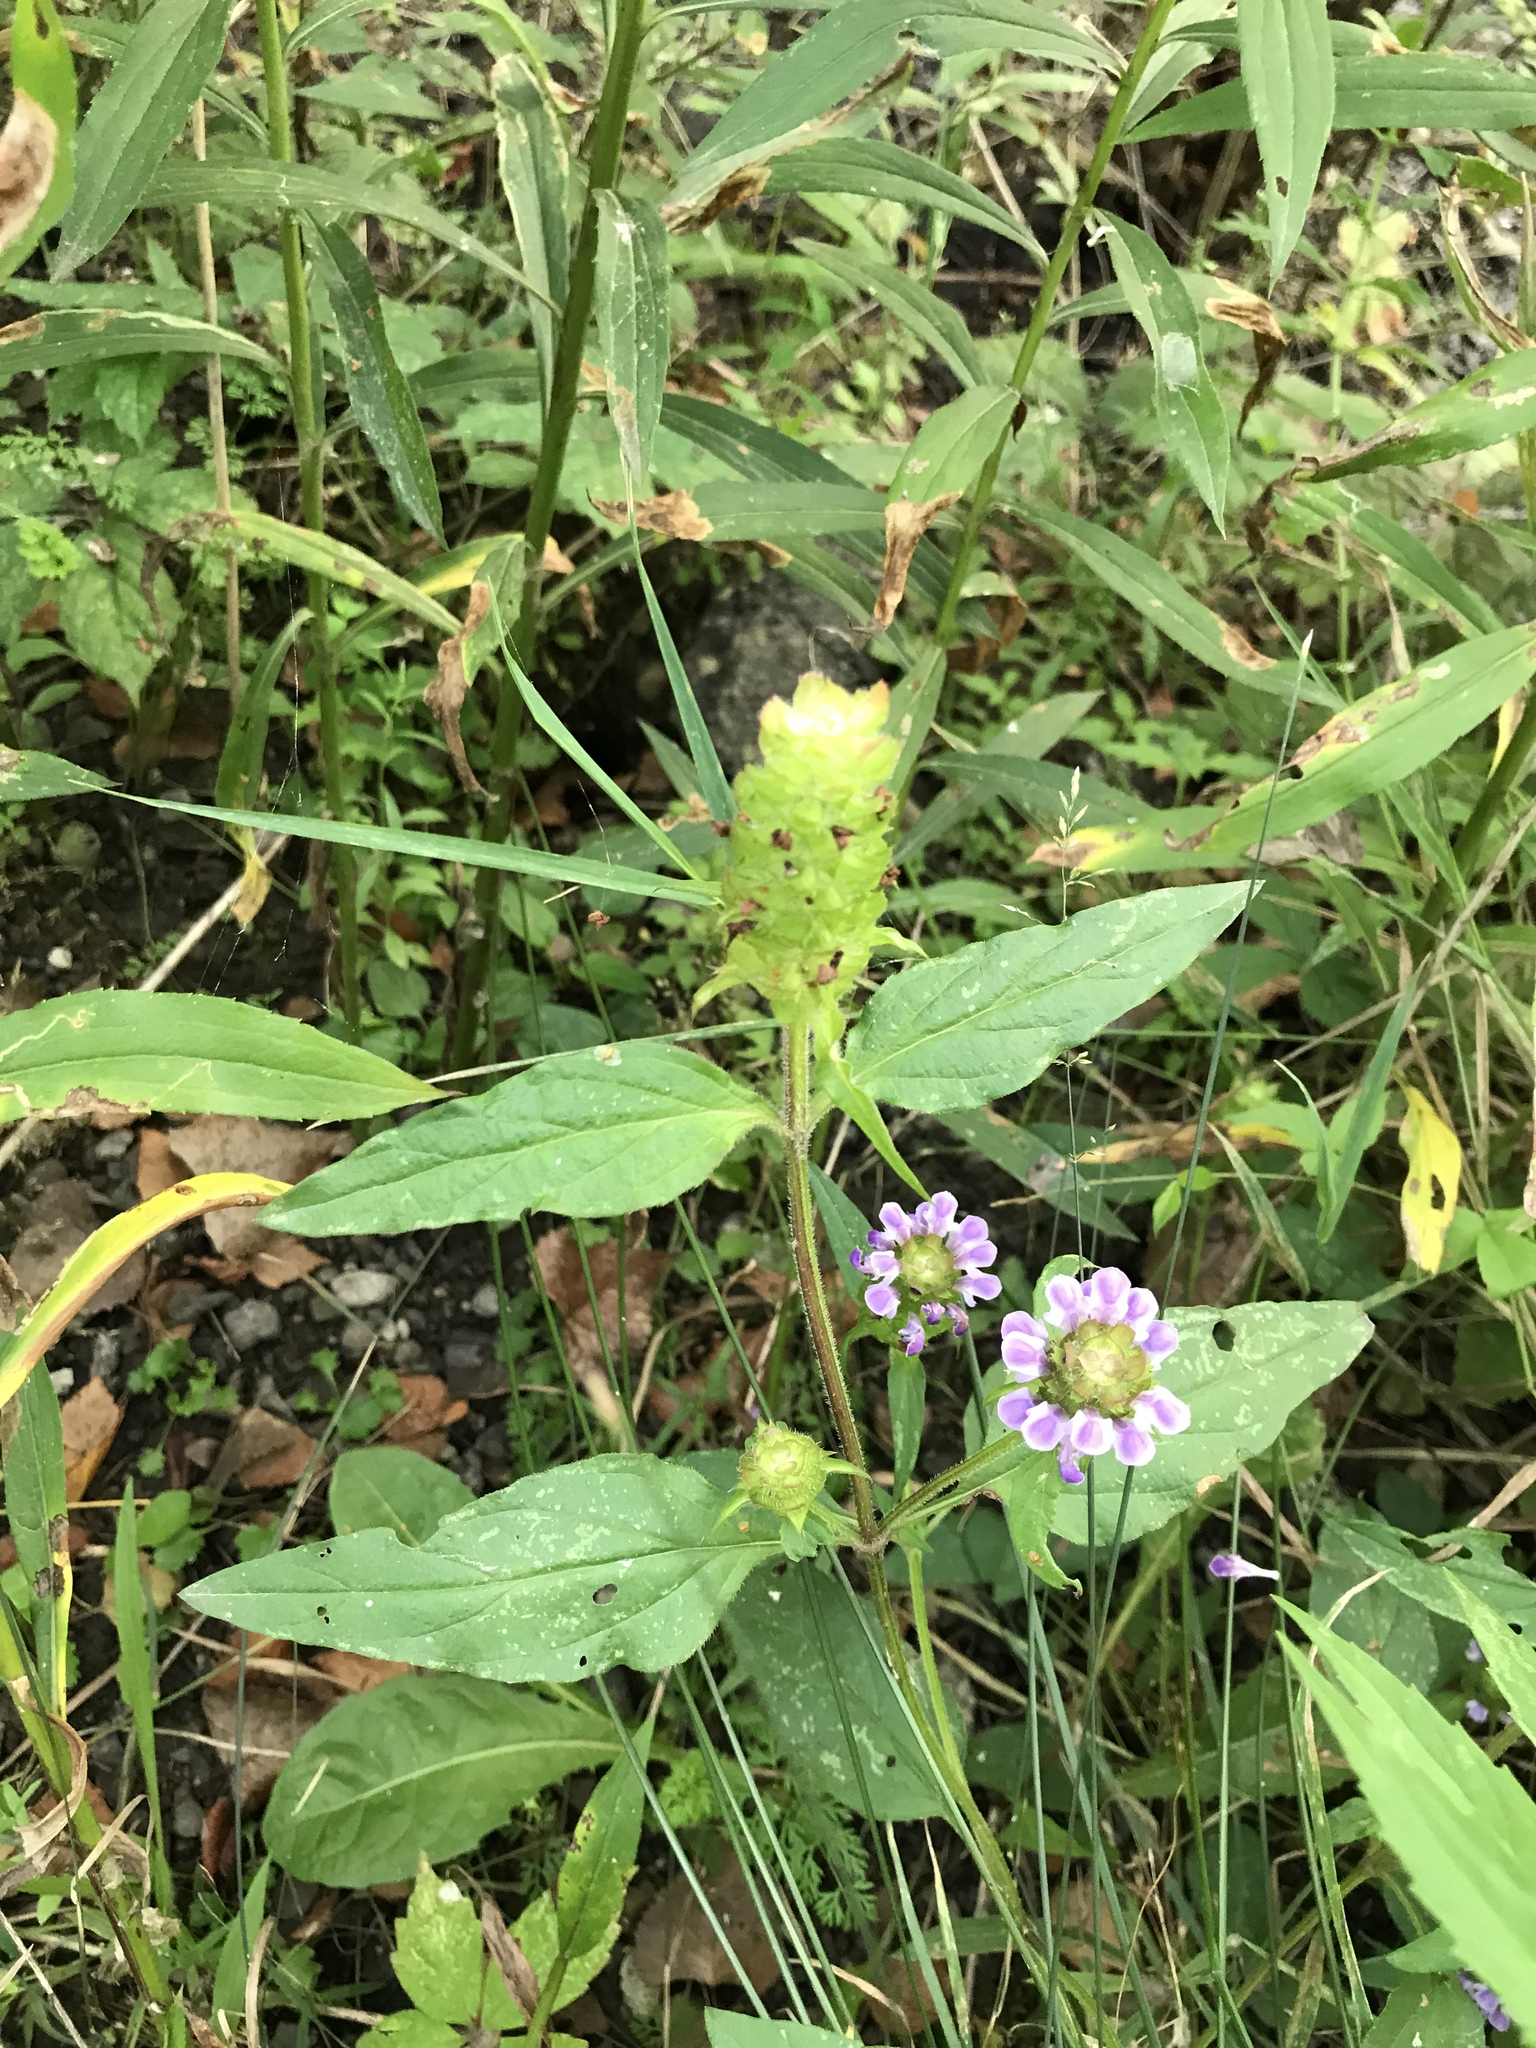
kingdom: Plantae
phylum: Tracheophyta
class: Magnoliopsida
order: Lamiales
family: Lamiaceae
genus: Prunella
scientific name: Prunella vulgaris
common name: Heal-all
